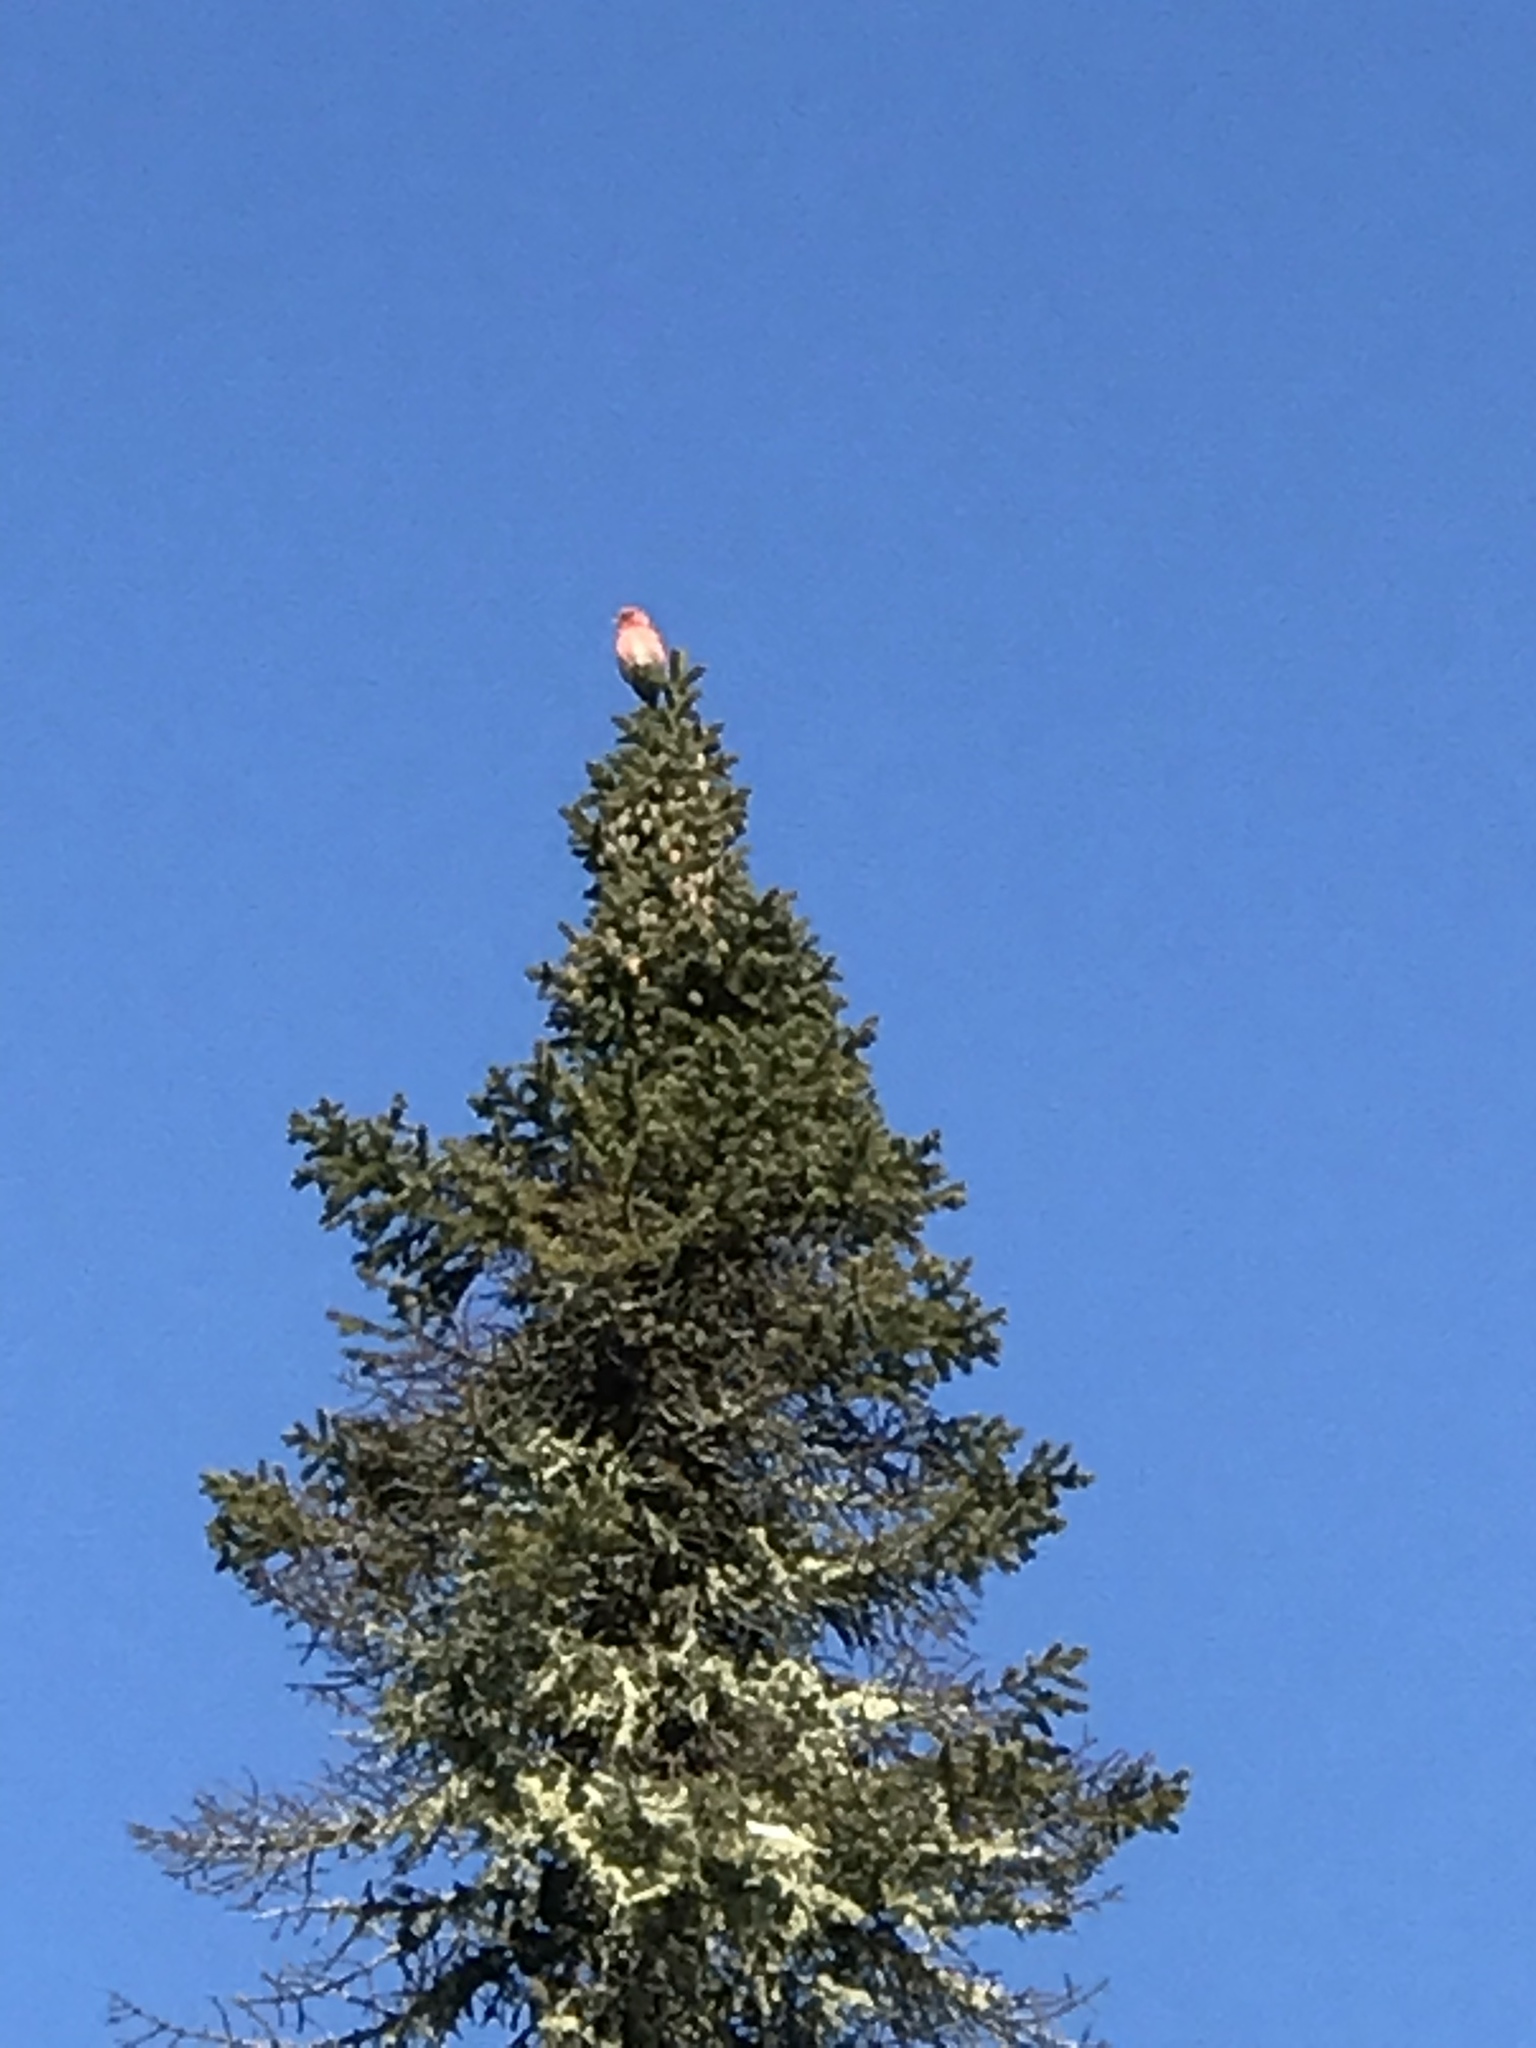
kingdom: Animalia
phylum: Chordata
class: Aves
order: Passeriformes
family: Fringillidae
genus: Loxia
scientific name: Loxia leucoptera
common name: Two-barred crossbill
